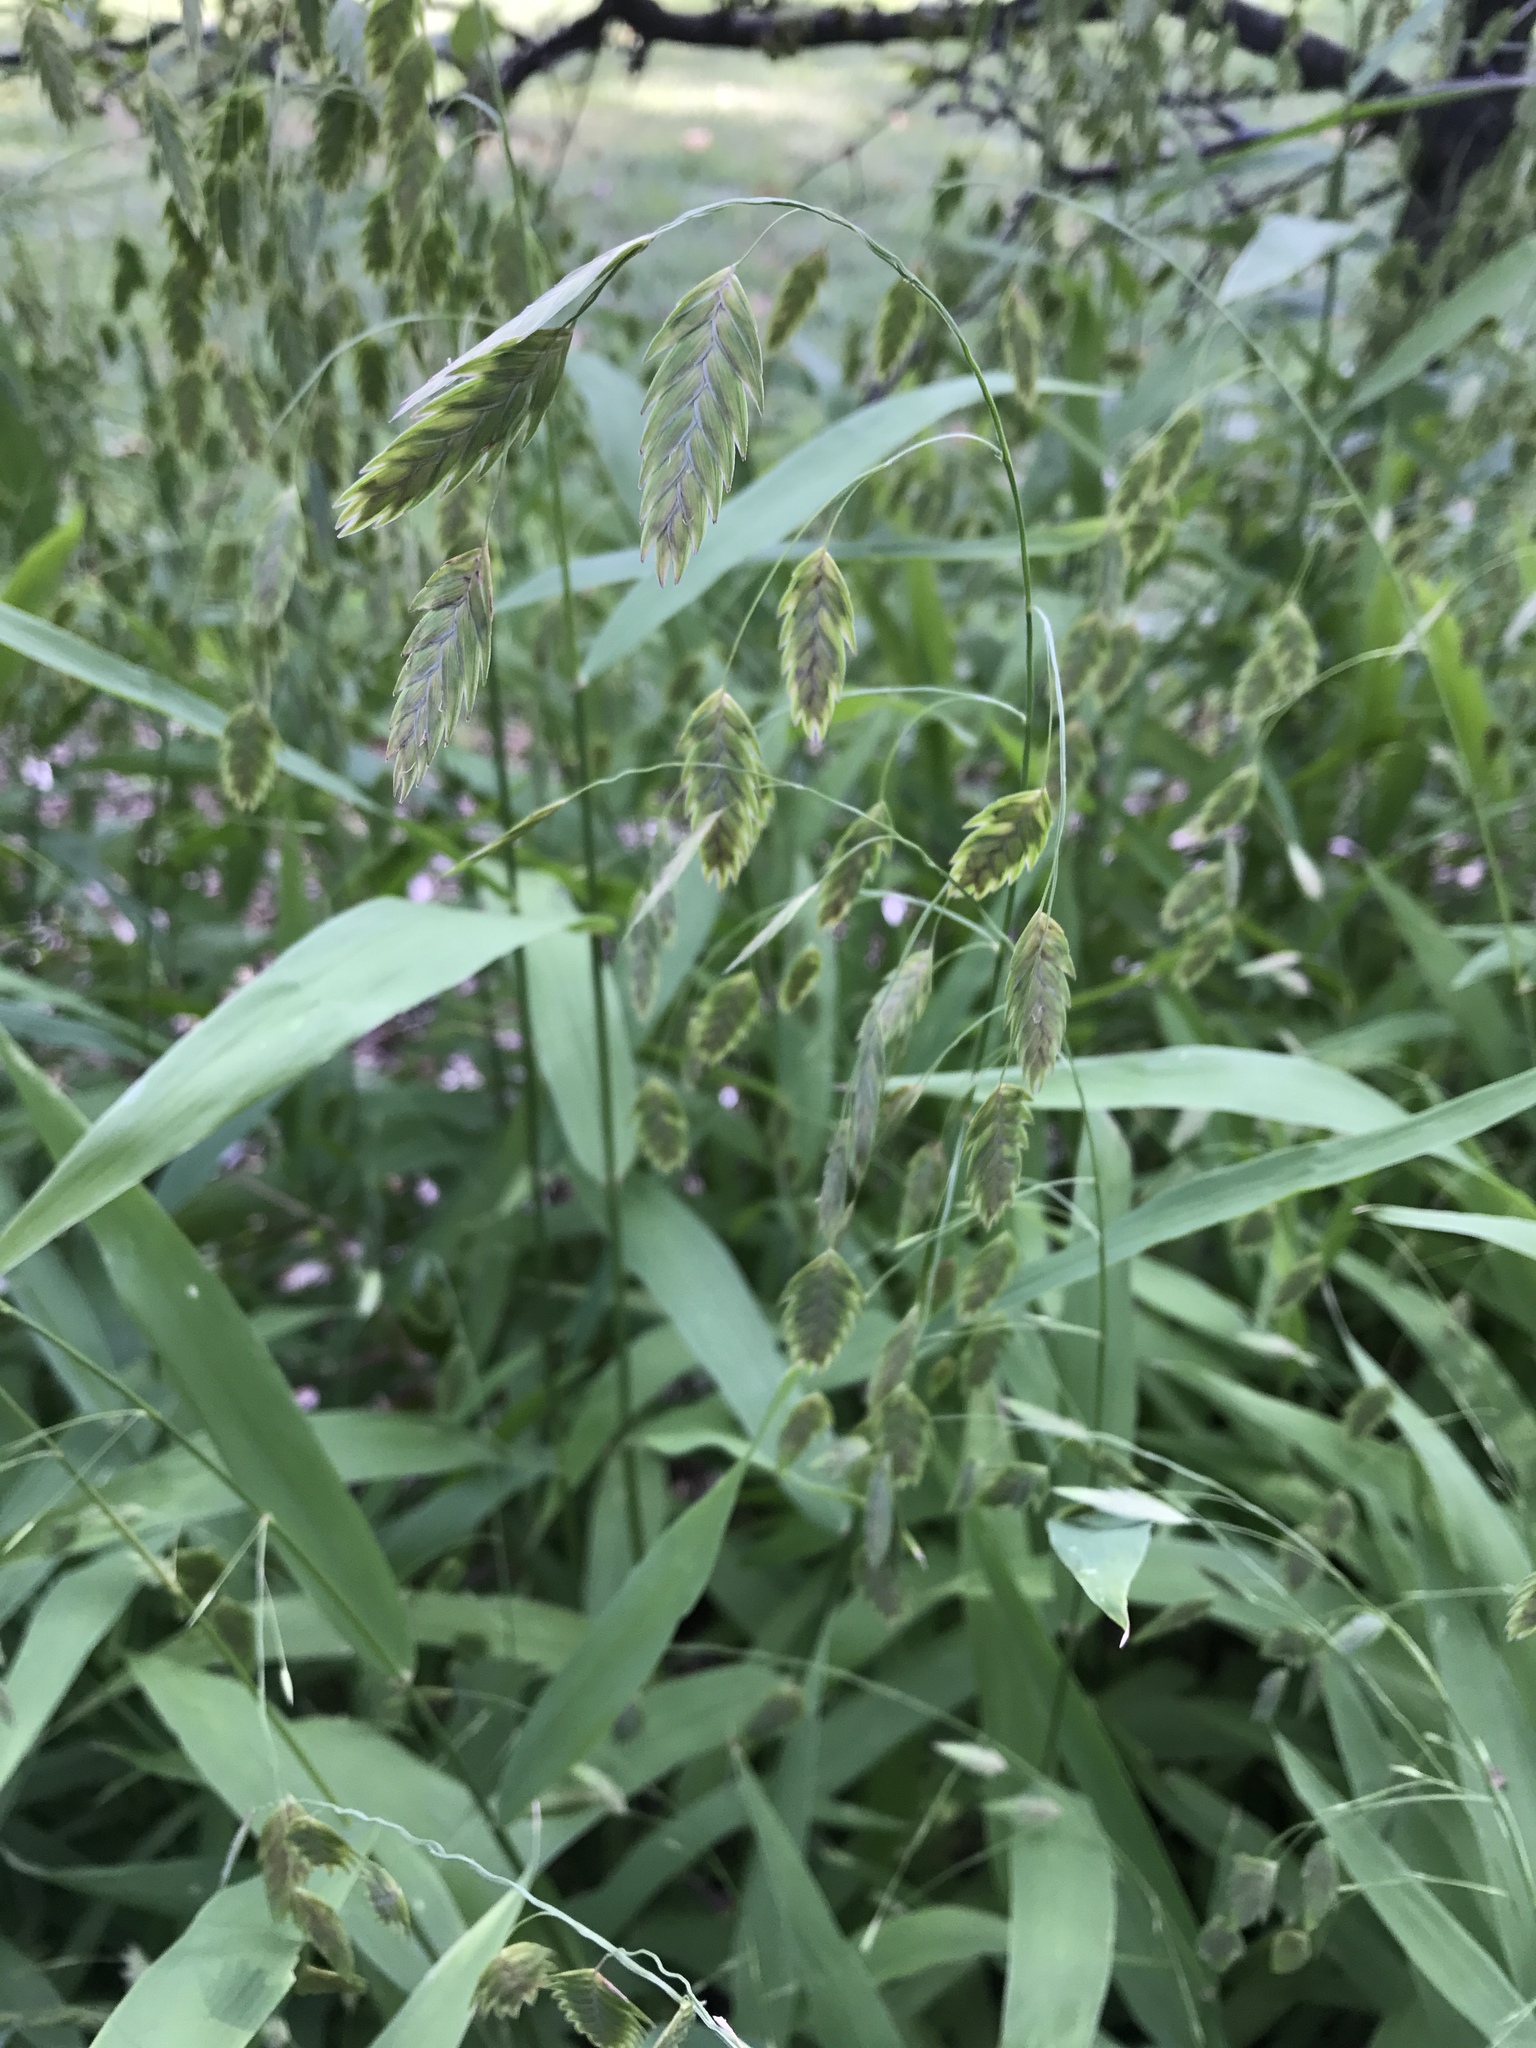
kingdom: Plantae
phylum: Tracheophyta
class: Liliopsida
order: Poales
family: Poaceae
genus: Chasmanthium
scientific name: Chasmanthium latifolium
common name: Broad-leaved chasmanthium
